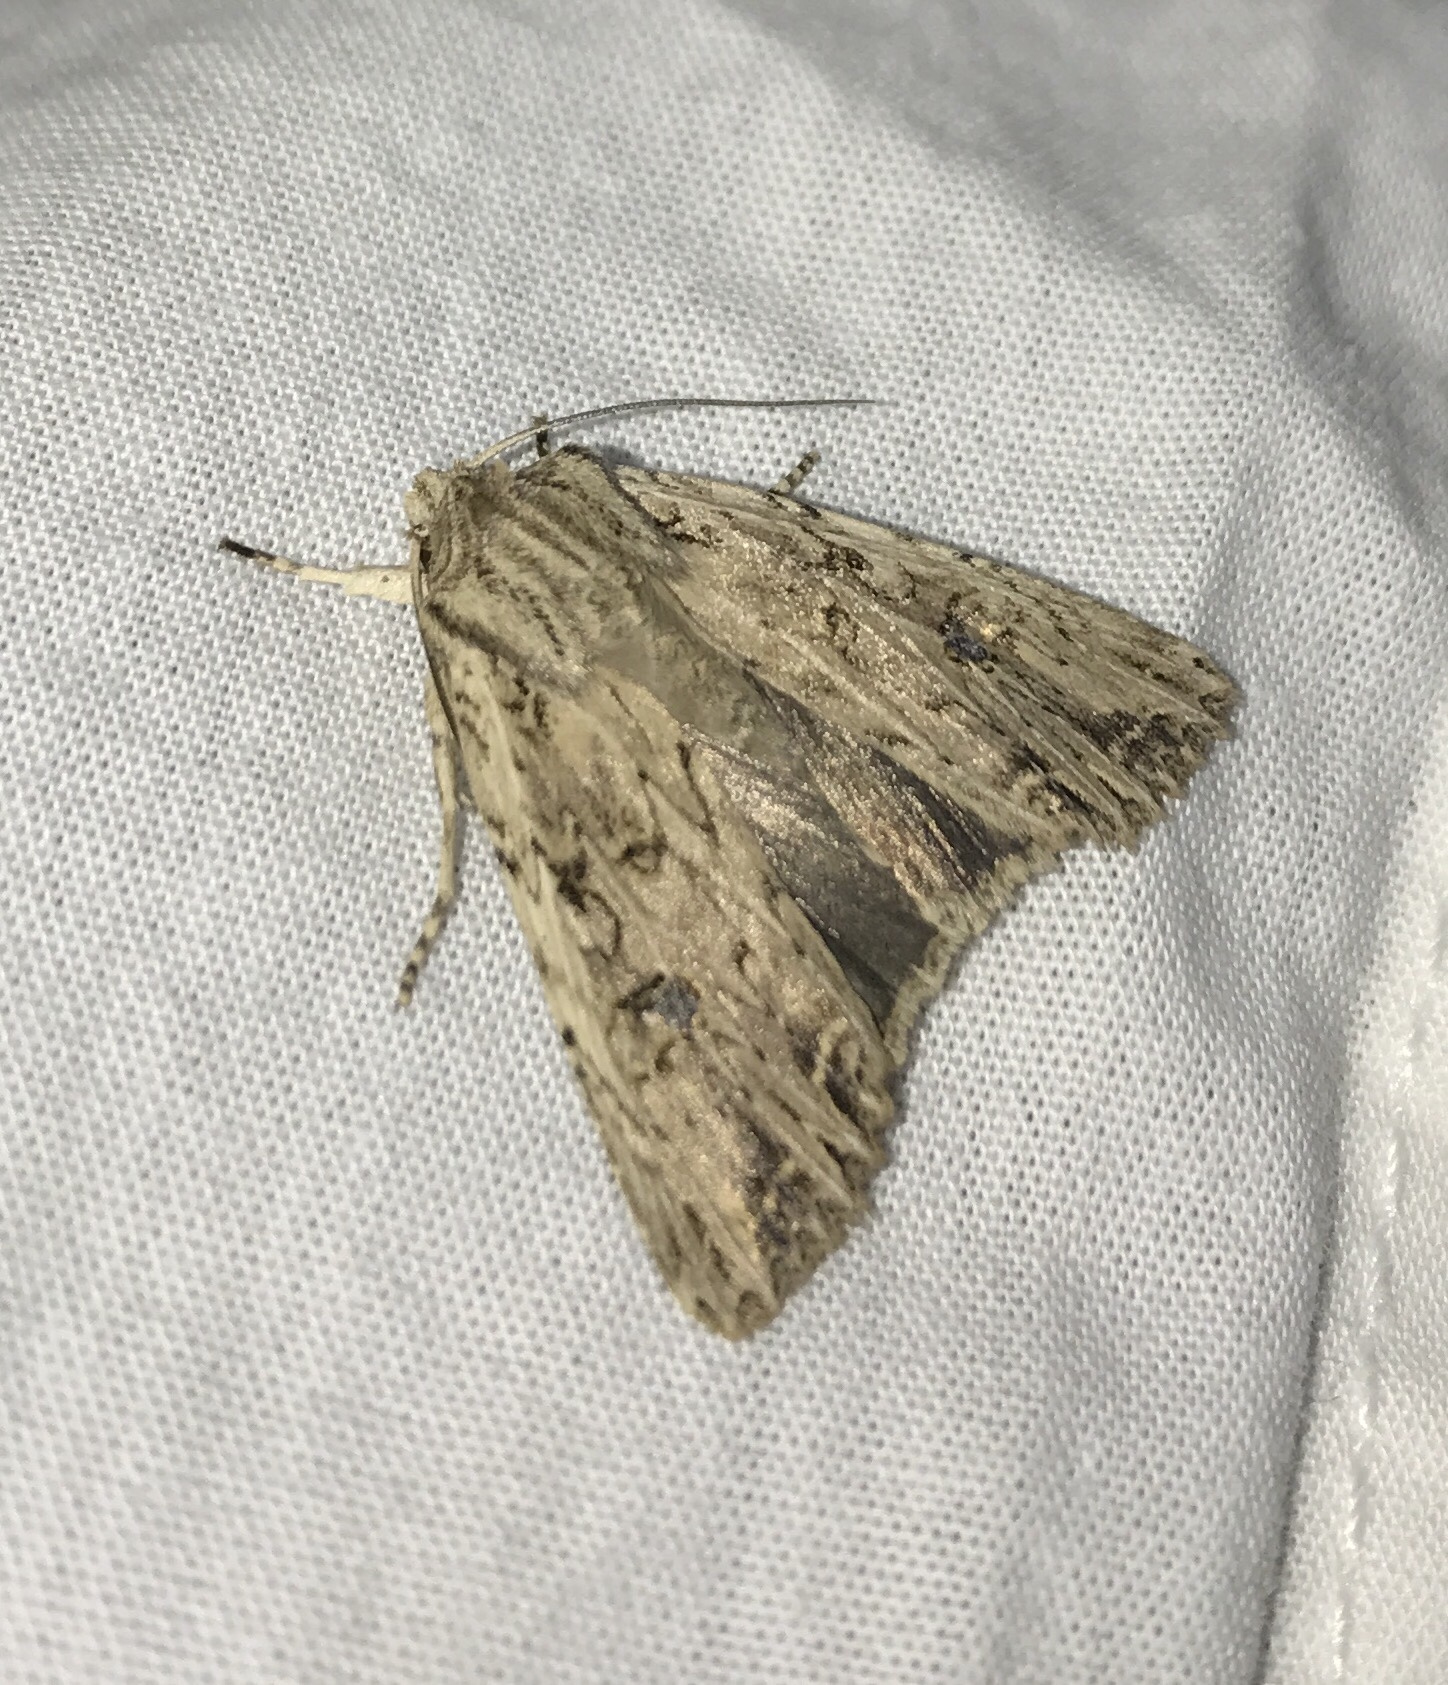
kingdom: Animalia
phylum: Arthropoda
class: Insecta
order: Lepidoptera
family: Noctuidae
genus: Ichneutica
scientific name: Ichneutica lignana
